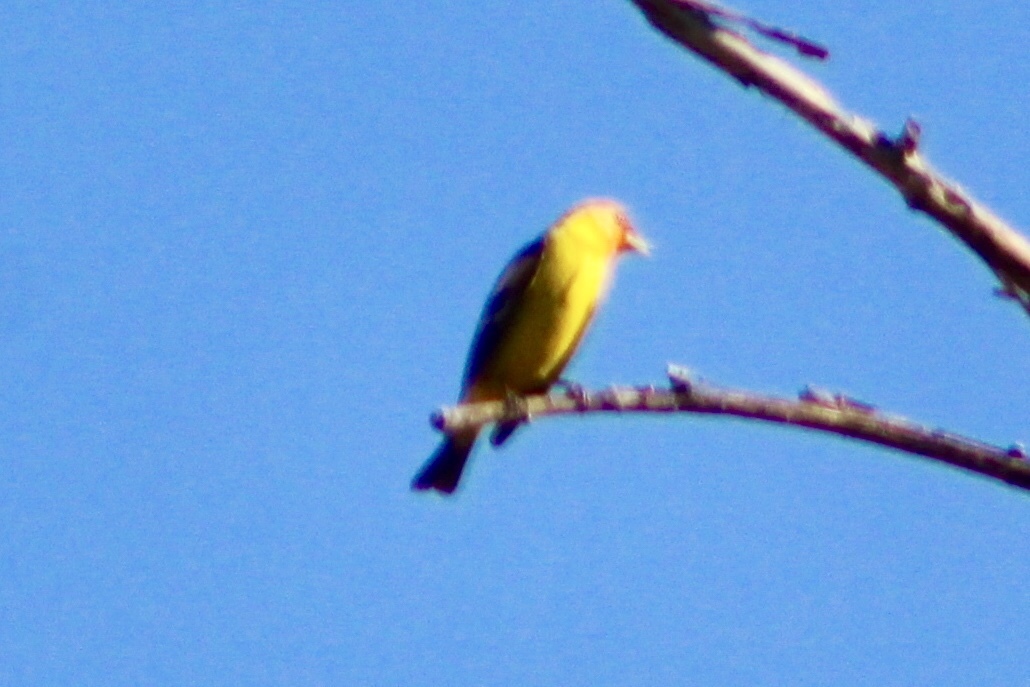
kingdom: Animalia
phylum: Chordata
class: Aves
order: Passeriformes
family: Cardinalidae
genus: Piranga
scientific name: Piranga ludoviciana
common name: Western tanager
